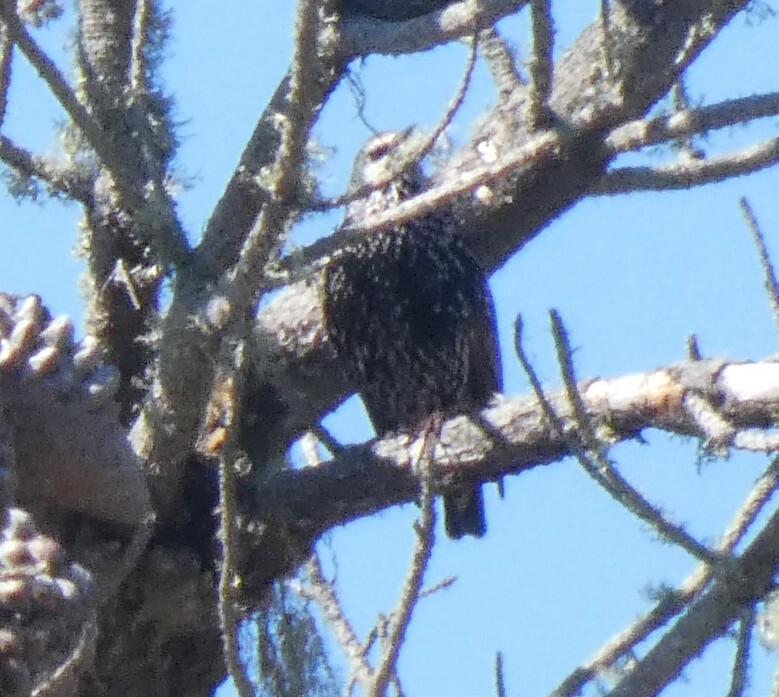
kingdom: Animalia
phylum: Chordata
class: Aves
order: Passeriformes
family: Sturnidae
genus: Sturnus
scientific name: Sturnus vulgaris
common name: Common starling
